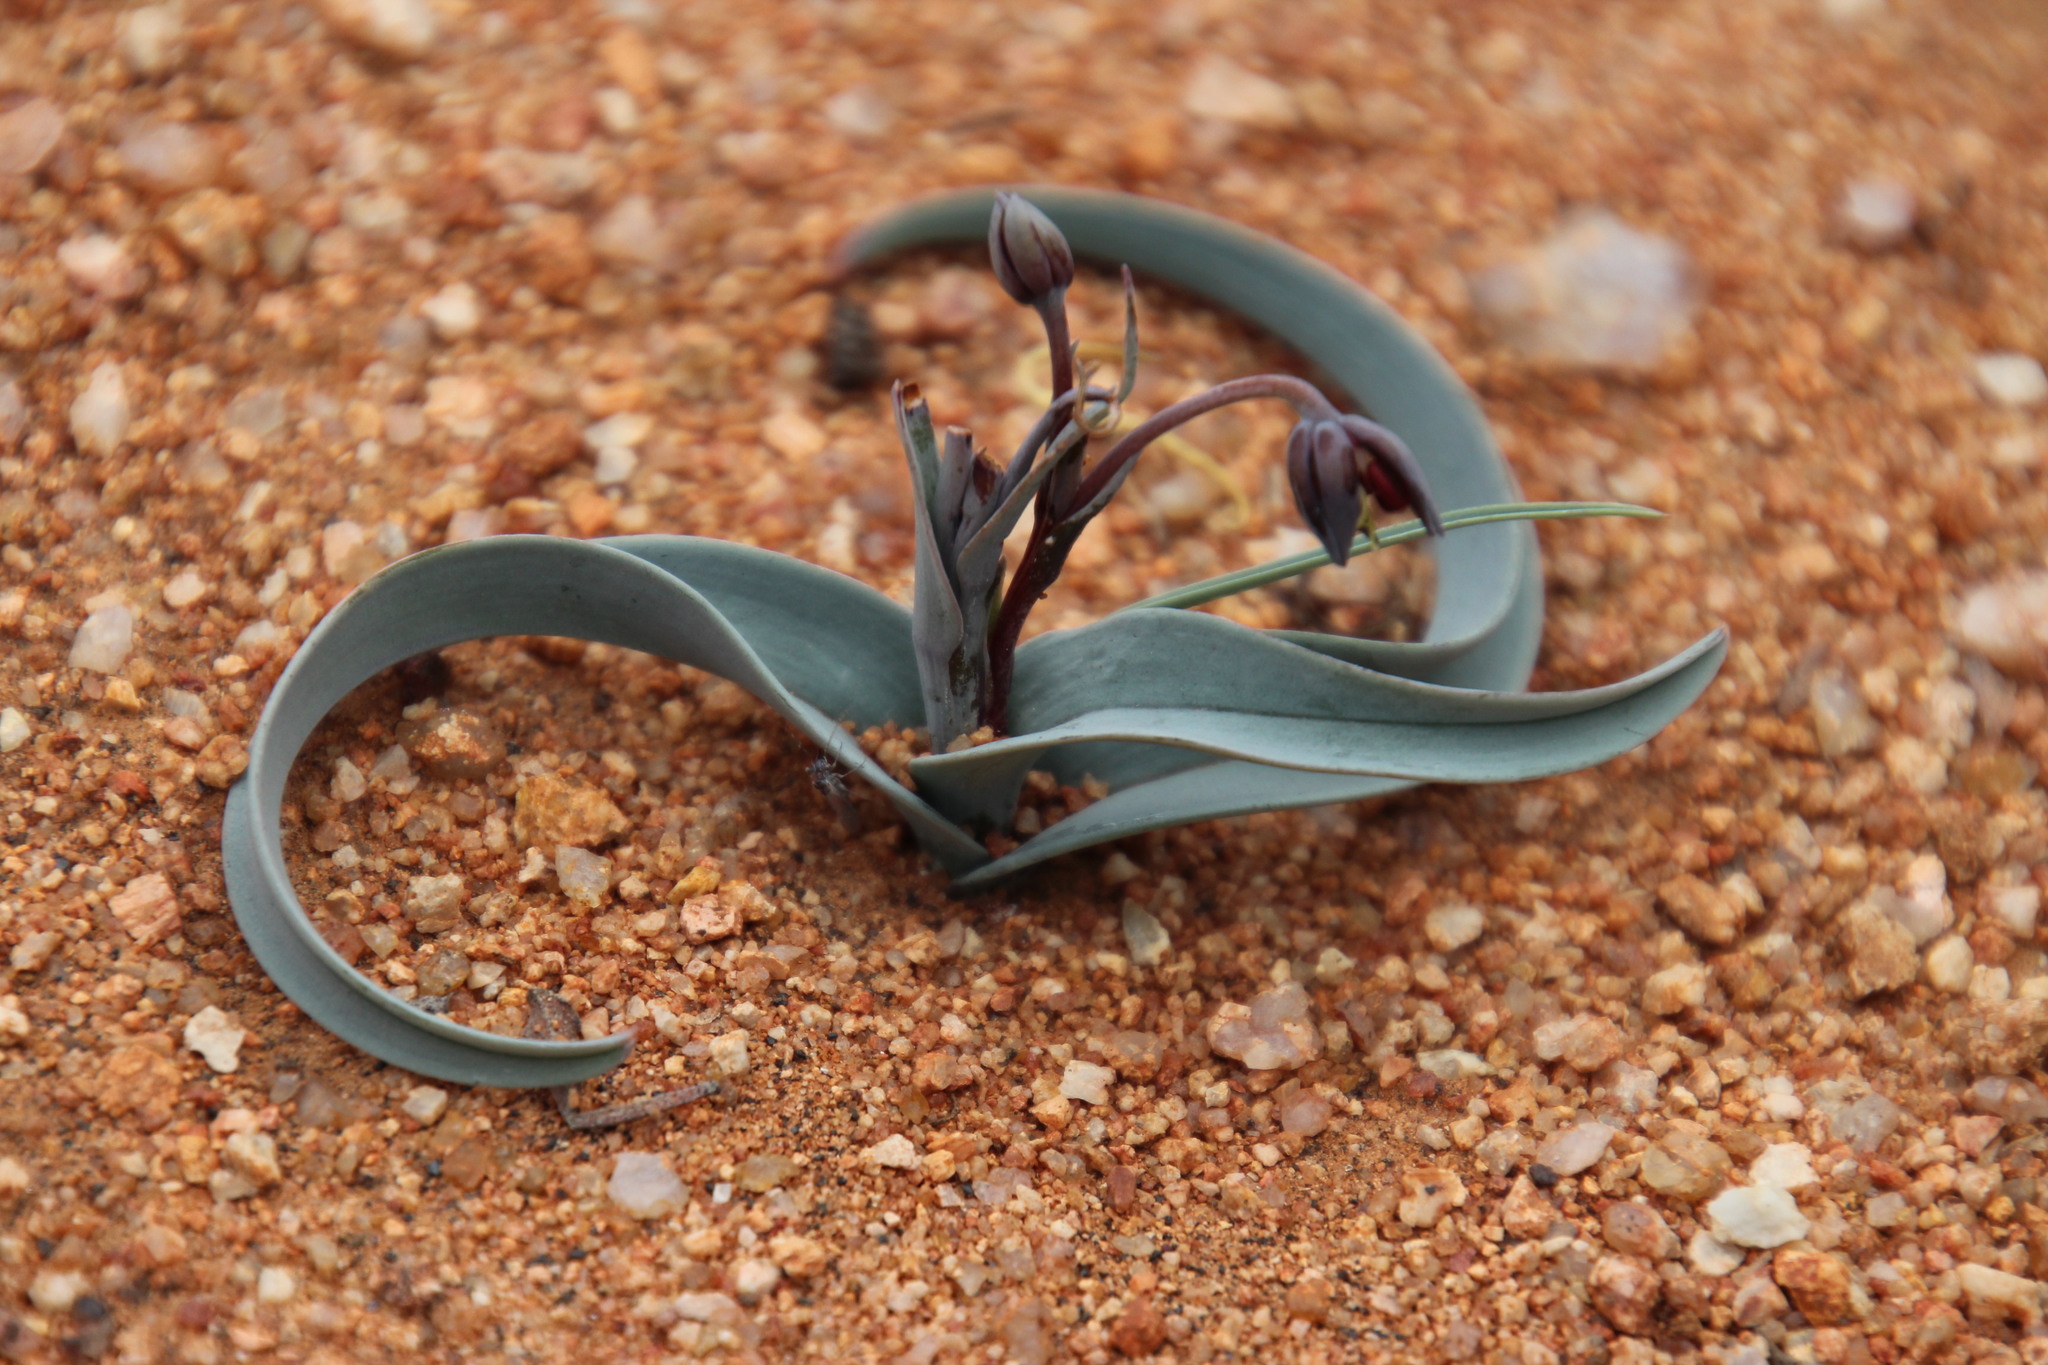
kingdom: Plantae
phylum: Tracheophyta
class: Liliopsida
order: Liliales
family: Colchicaceae
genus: Ornithoglossum
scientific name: Ornithoglossum vulgare
